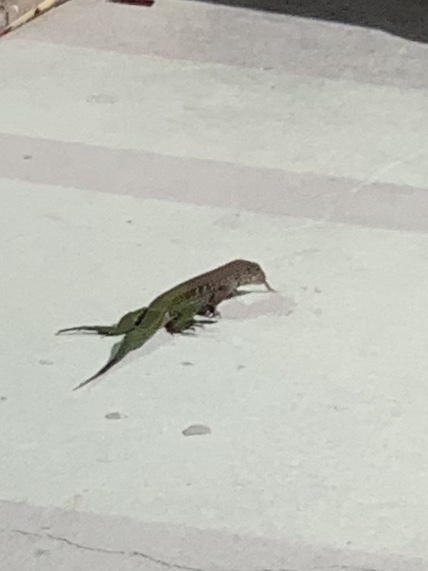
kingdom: Animalia
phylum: Chordata
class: Squamata
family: Teiidae
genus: Ameiva
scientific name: Ameiva ameiva
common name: Giant ameiva
